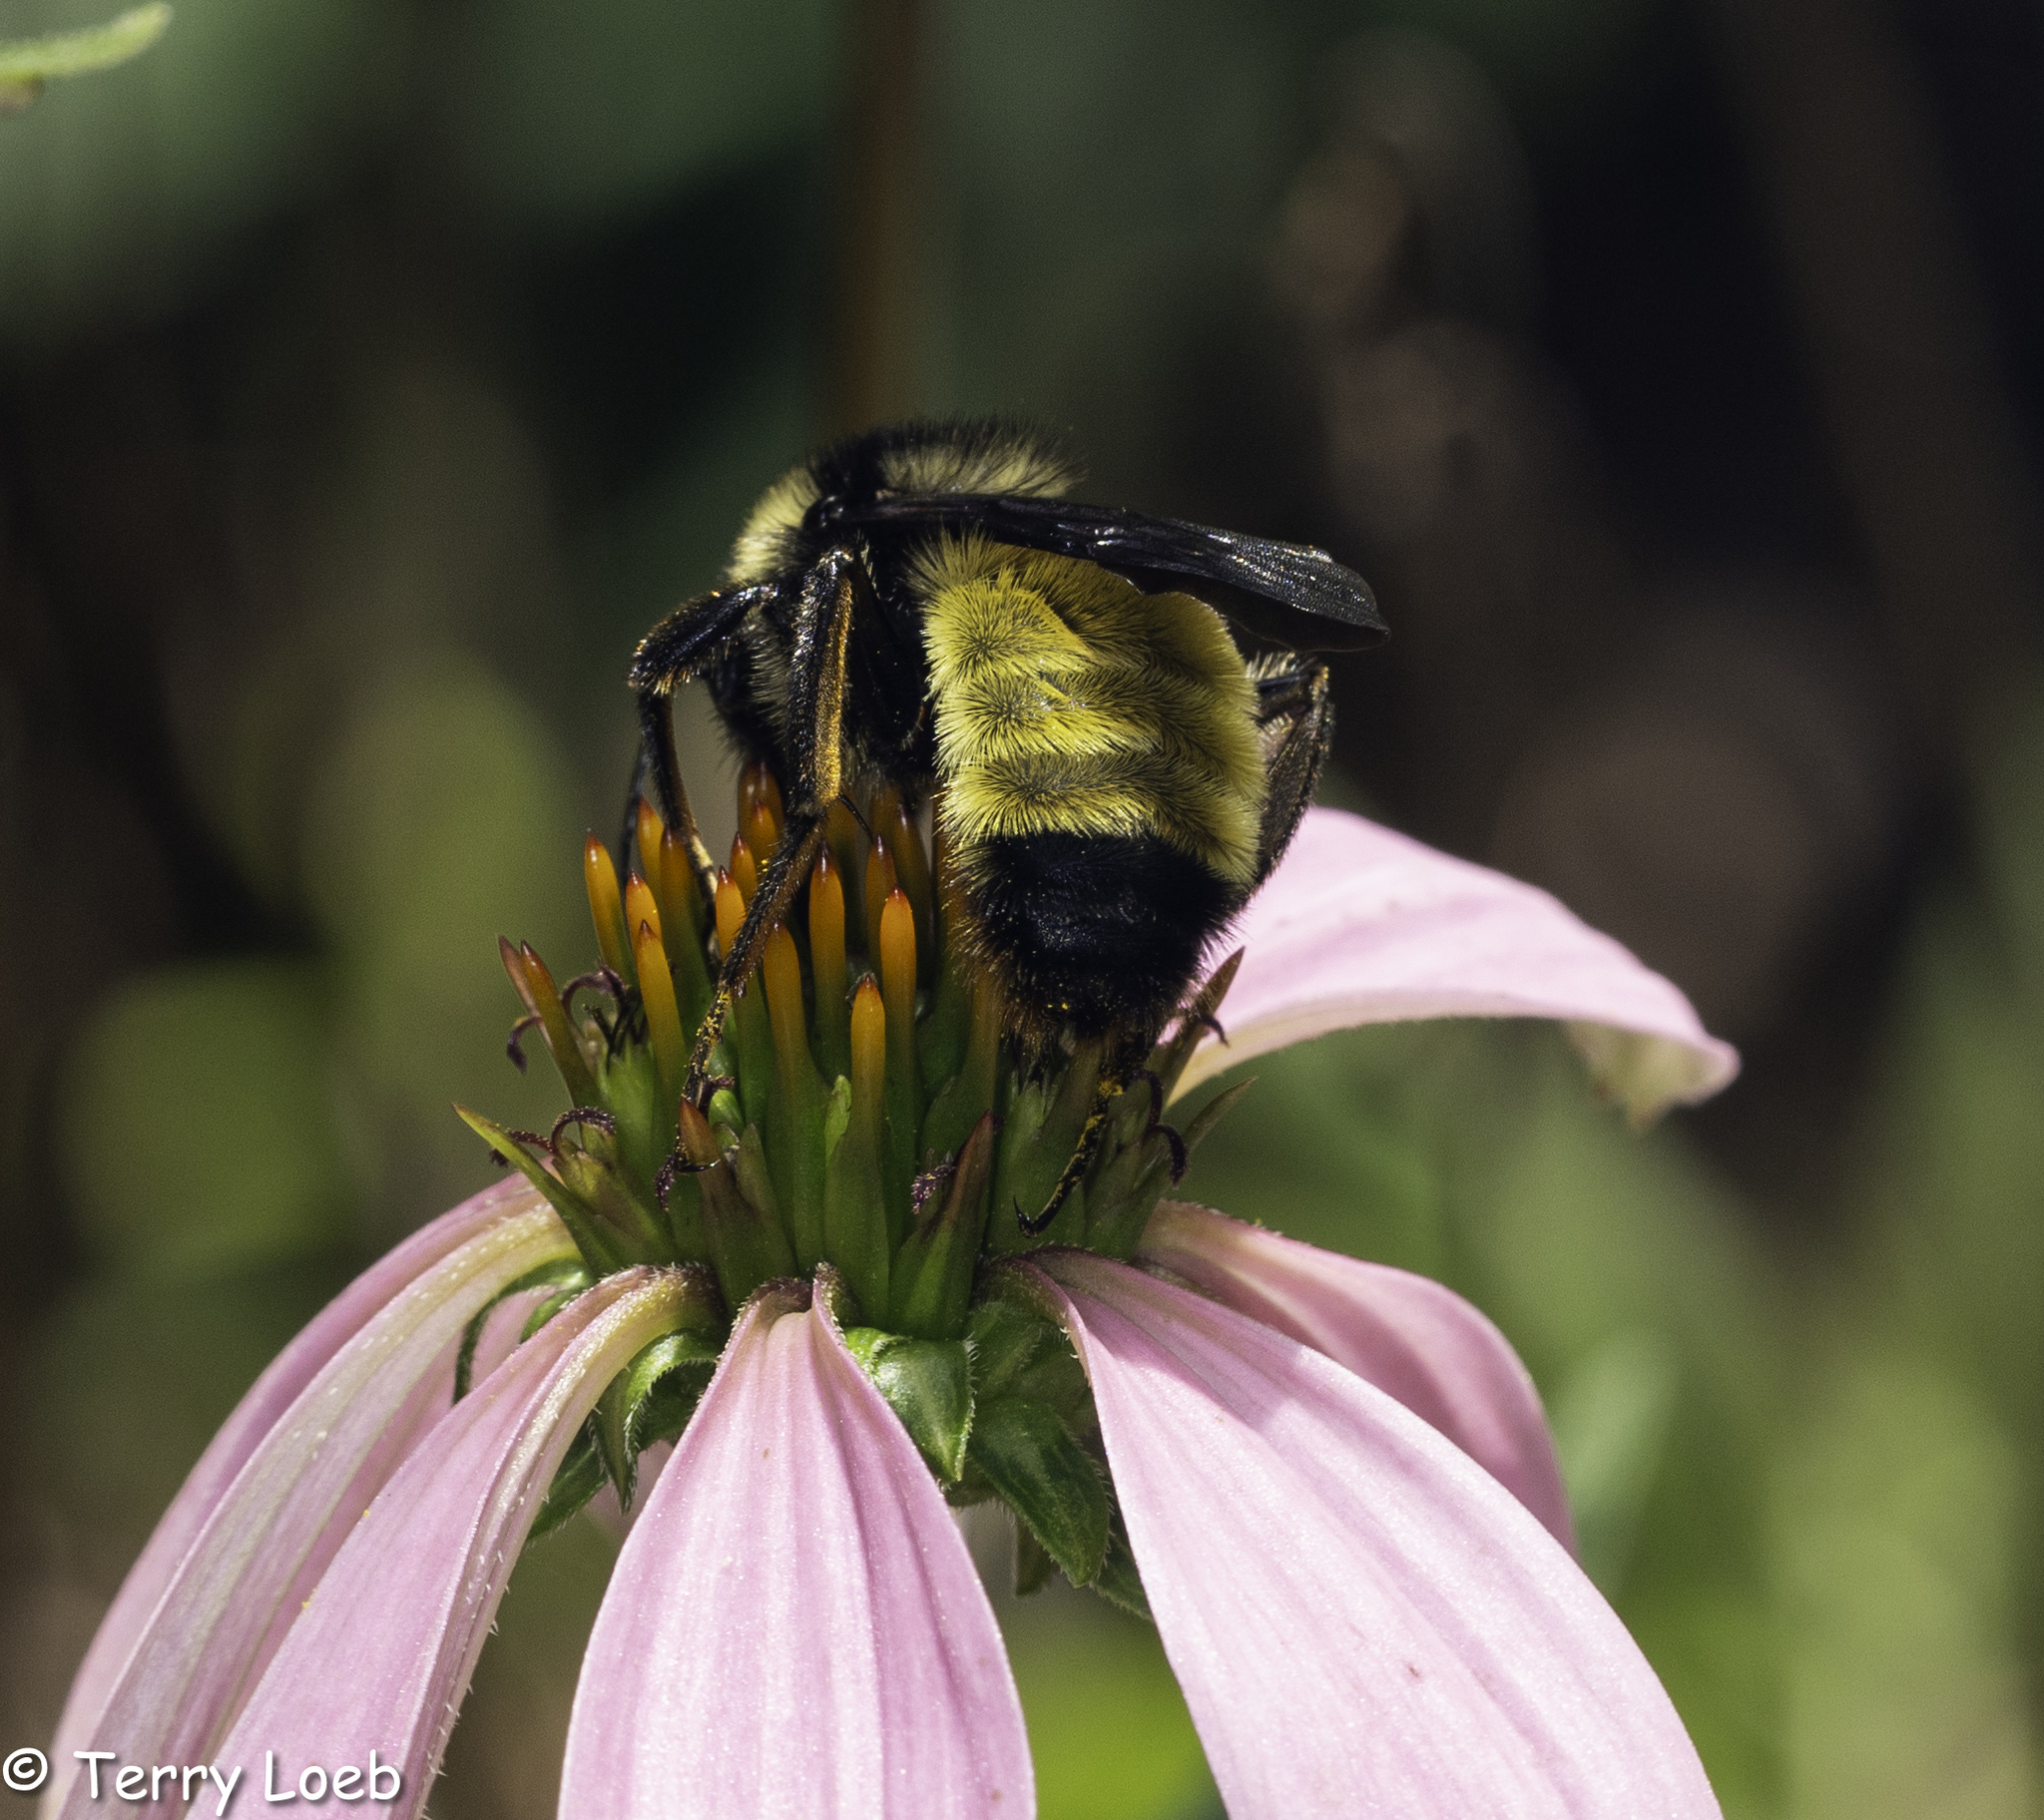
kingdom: Animalia
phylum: Arthropoda
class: Insecta
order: Hymenoptera
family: Apidae
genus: Bombus
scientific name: Bombus pensylvanicus
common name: Bumble bee
